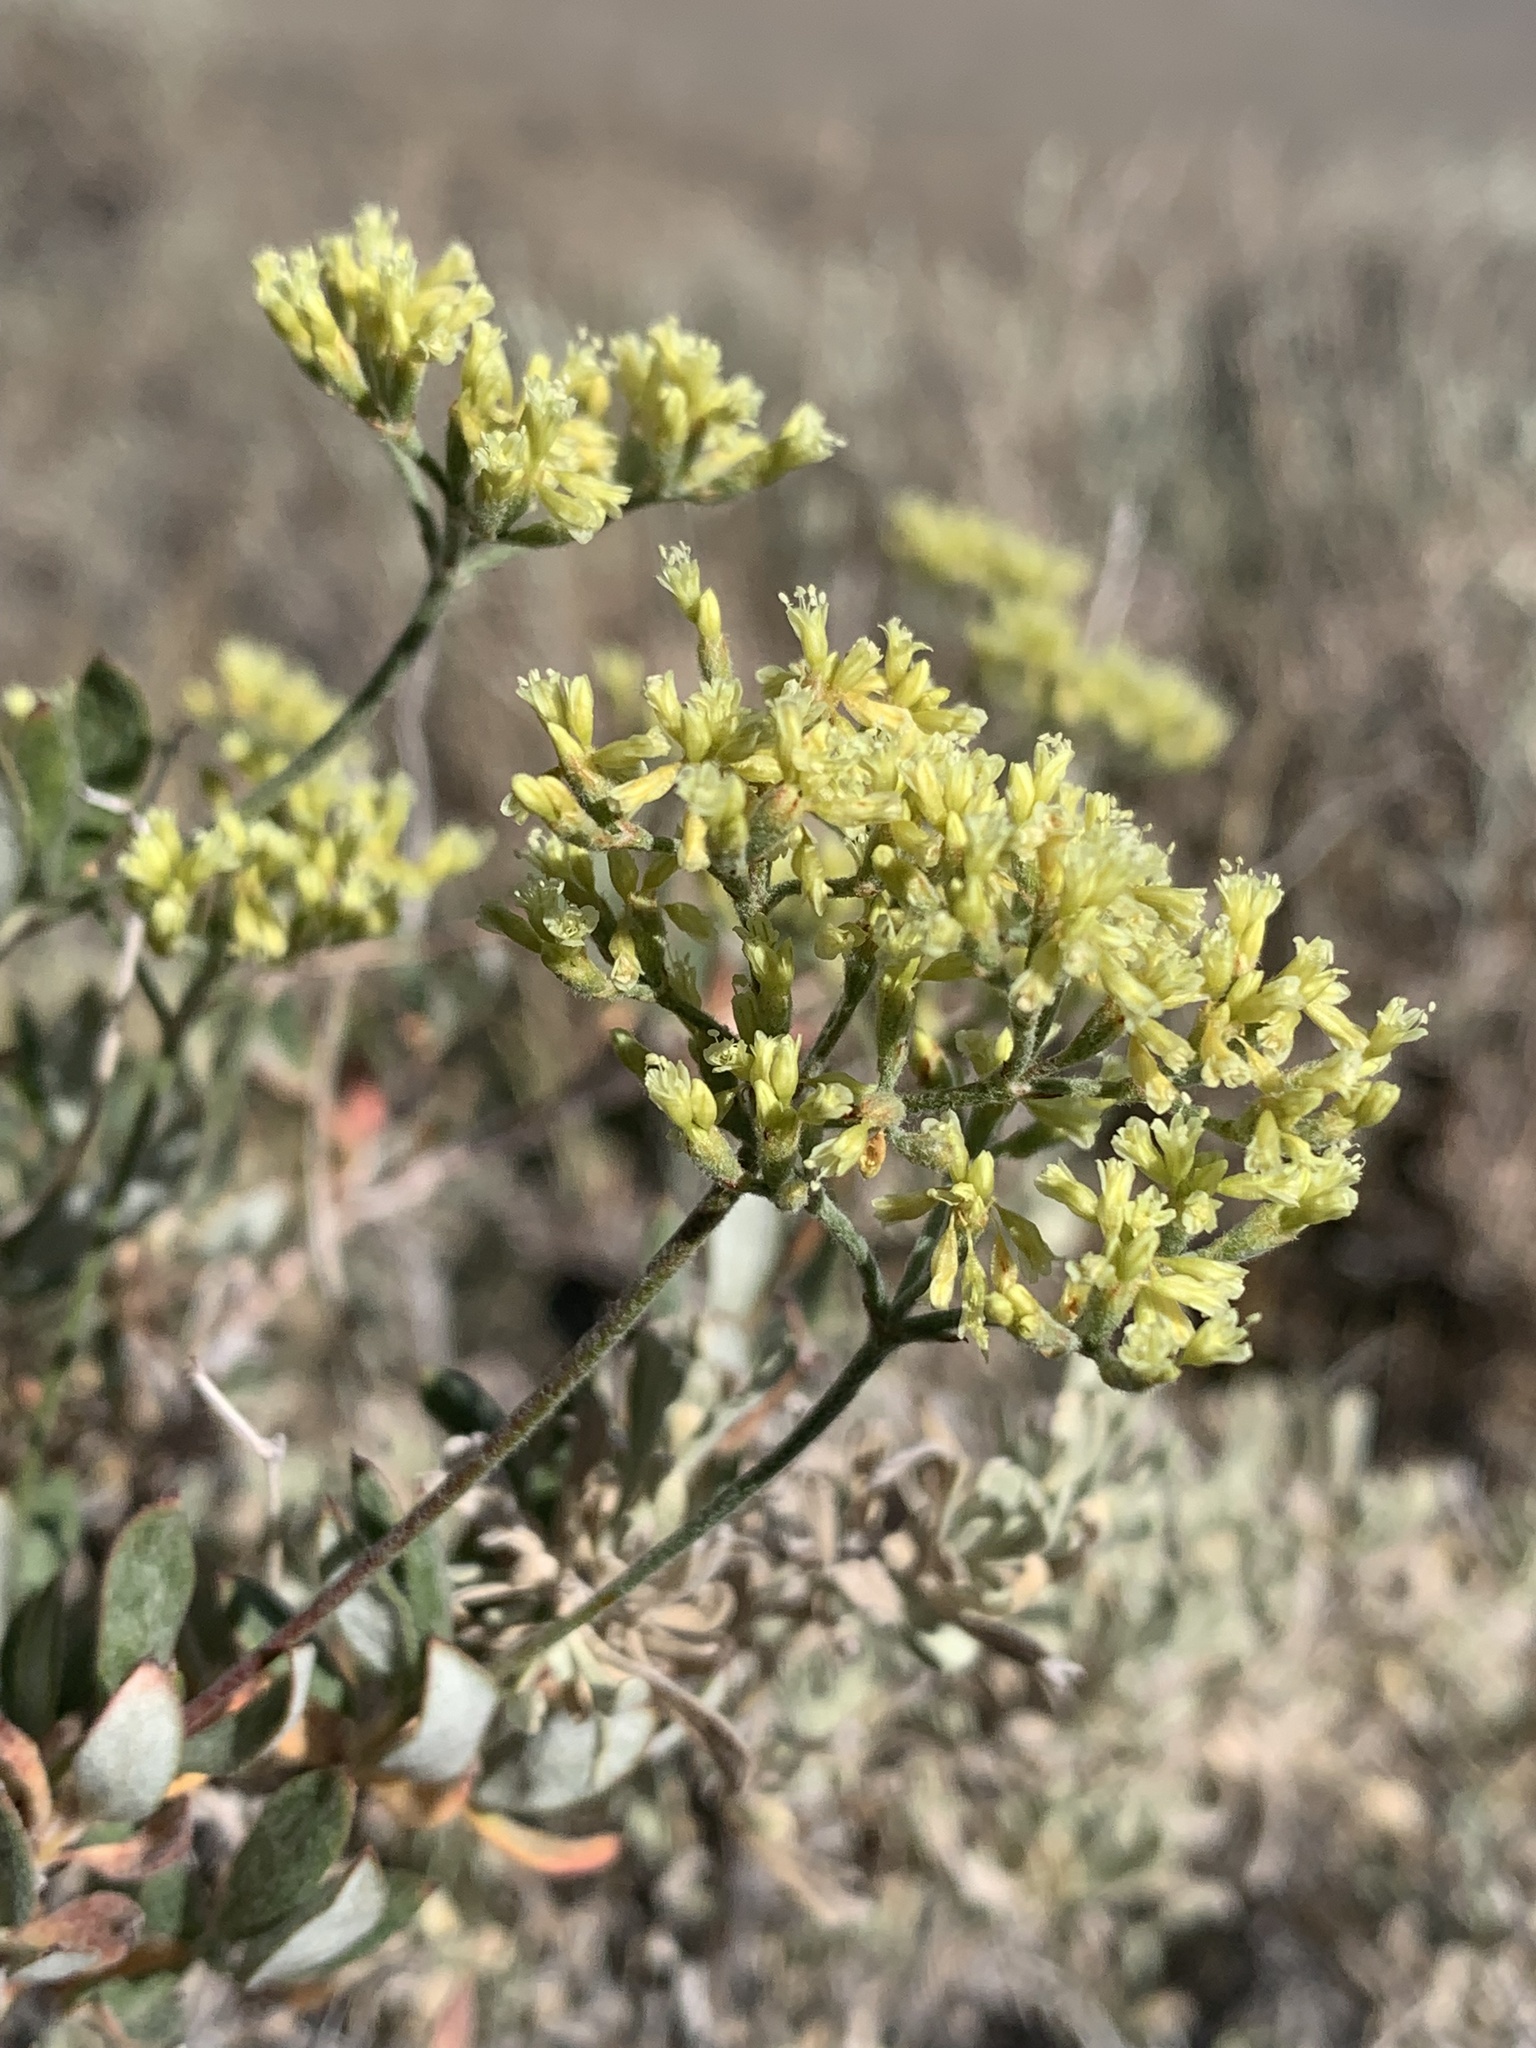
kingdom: Plantae
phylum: Tracheophyta
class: Magnoliopsida
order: Caryophyllales
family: Polygonaceae
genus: Eriogonum
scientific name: Eriogonum microtheca
